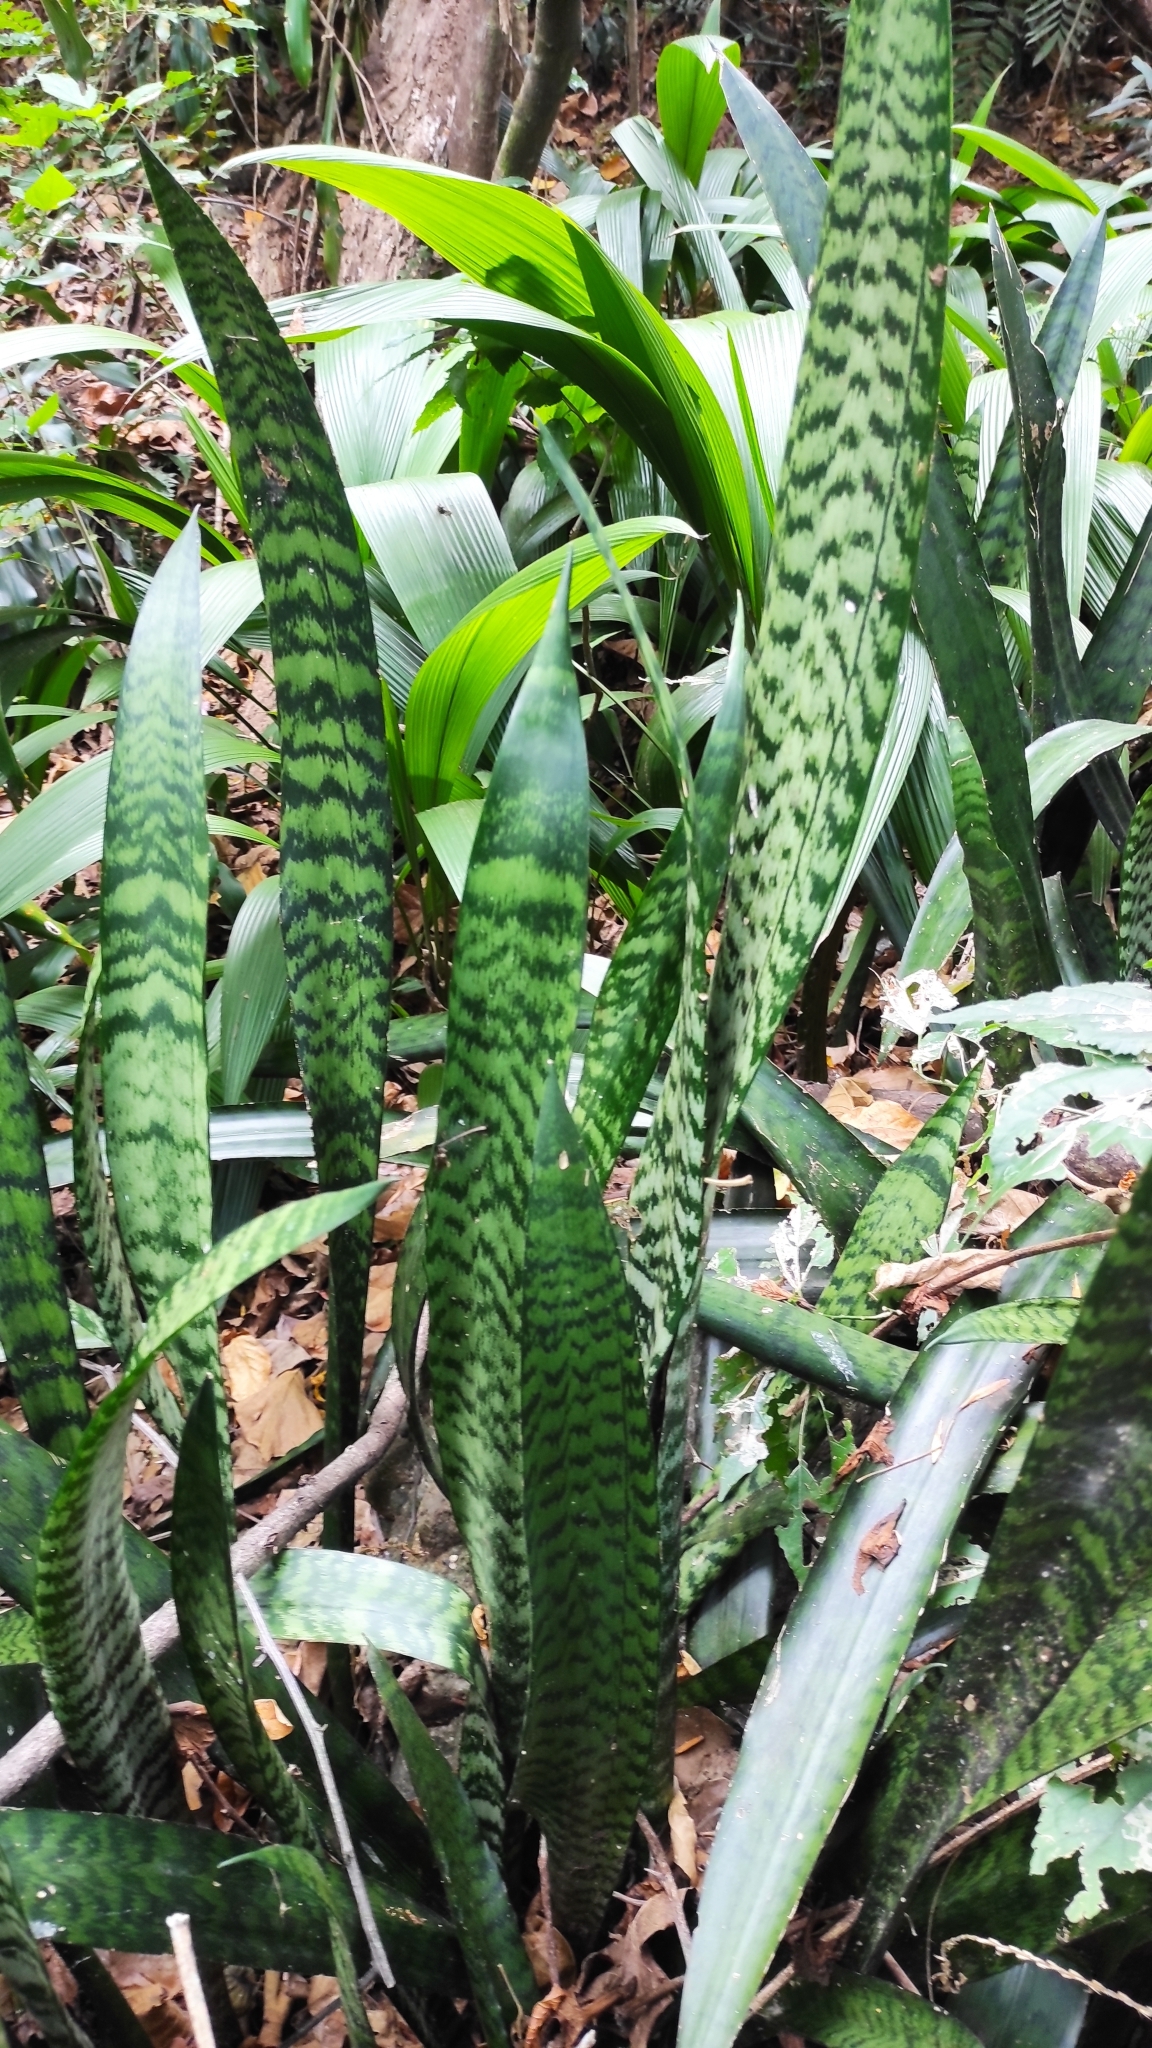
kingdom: Plantae
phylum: Tracheophyta
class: Liliopsida
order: Asparagales
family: Asparagaceae
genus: Dracaena
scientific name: Dracaena trifasciata
